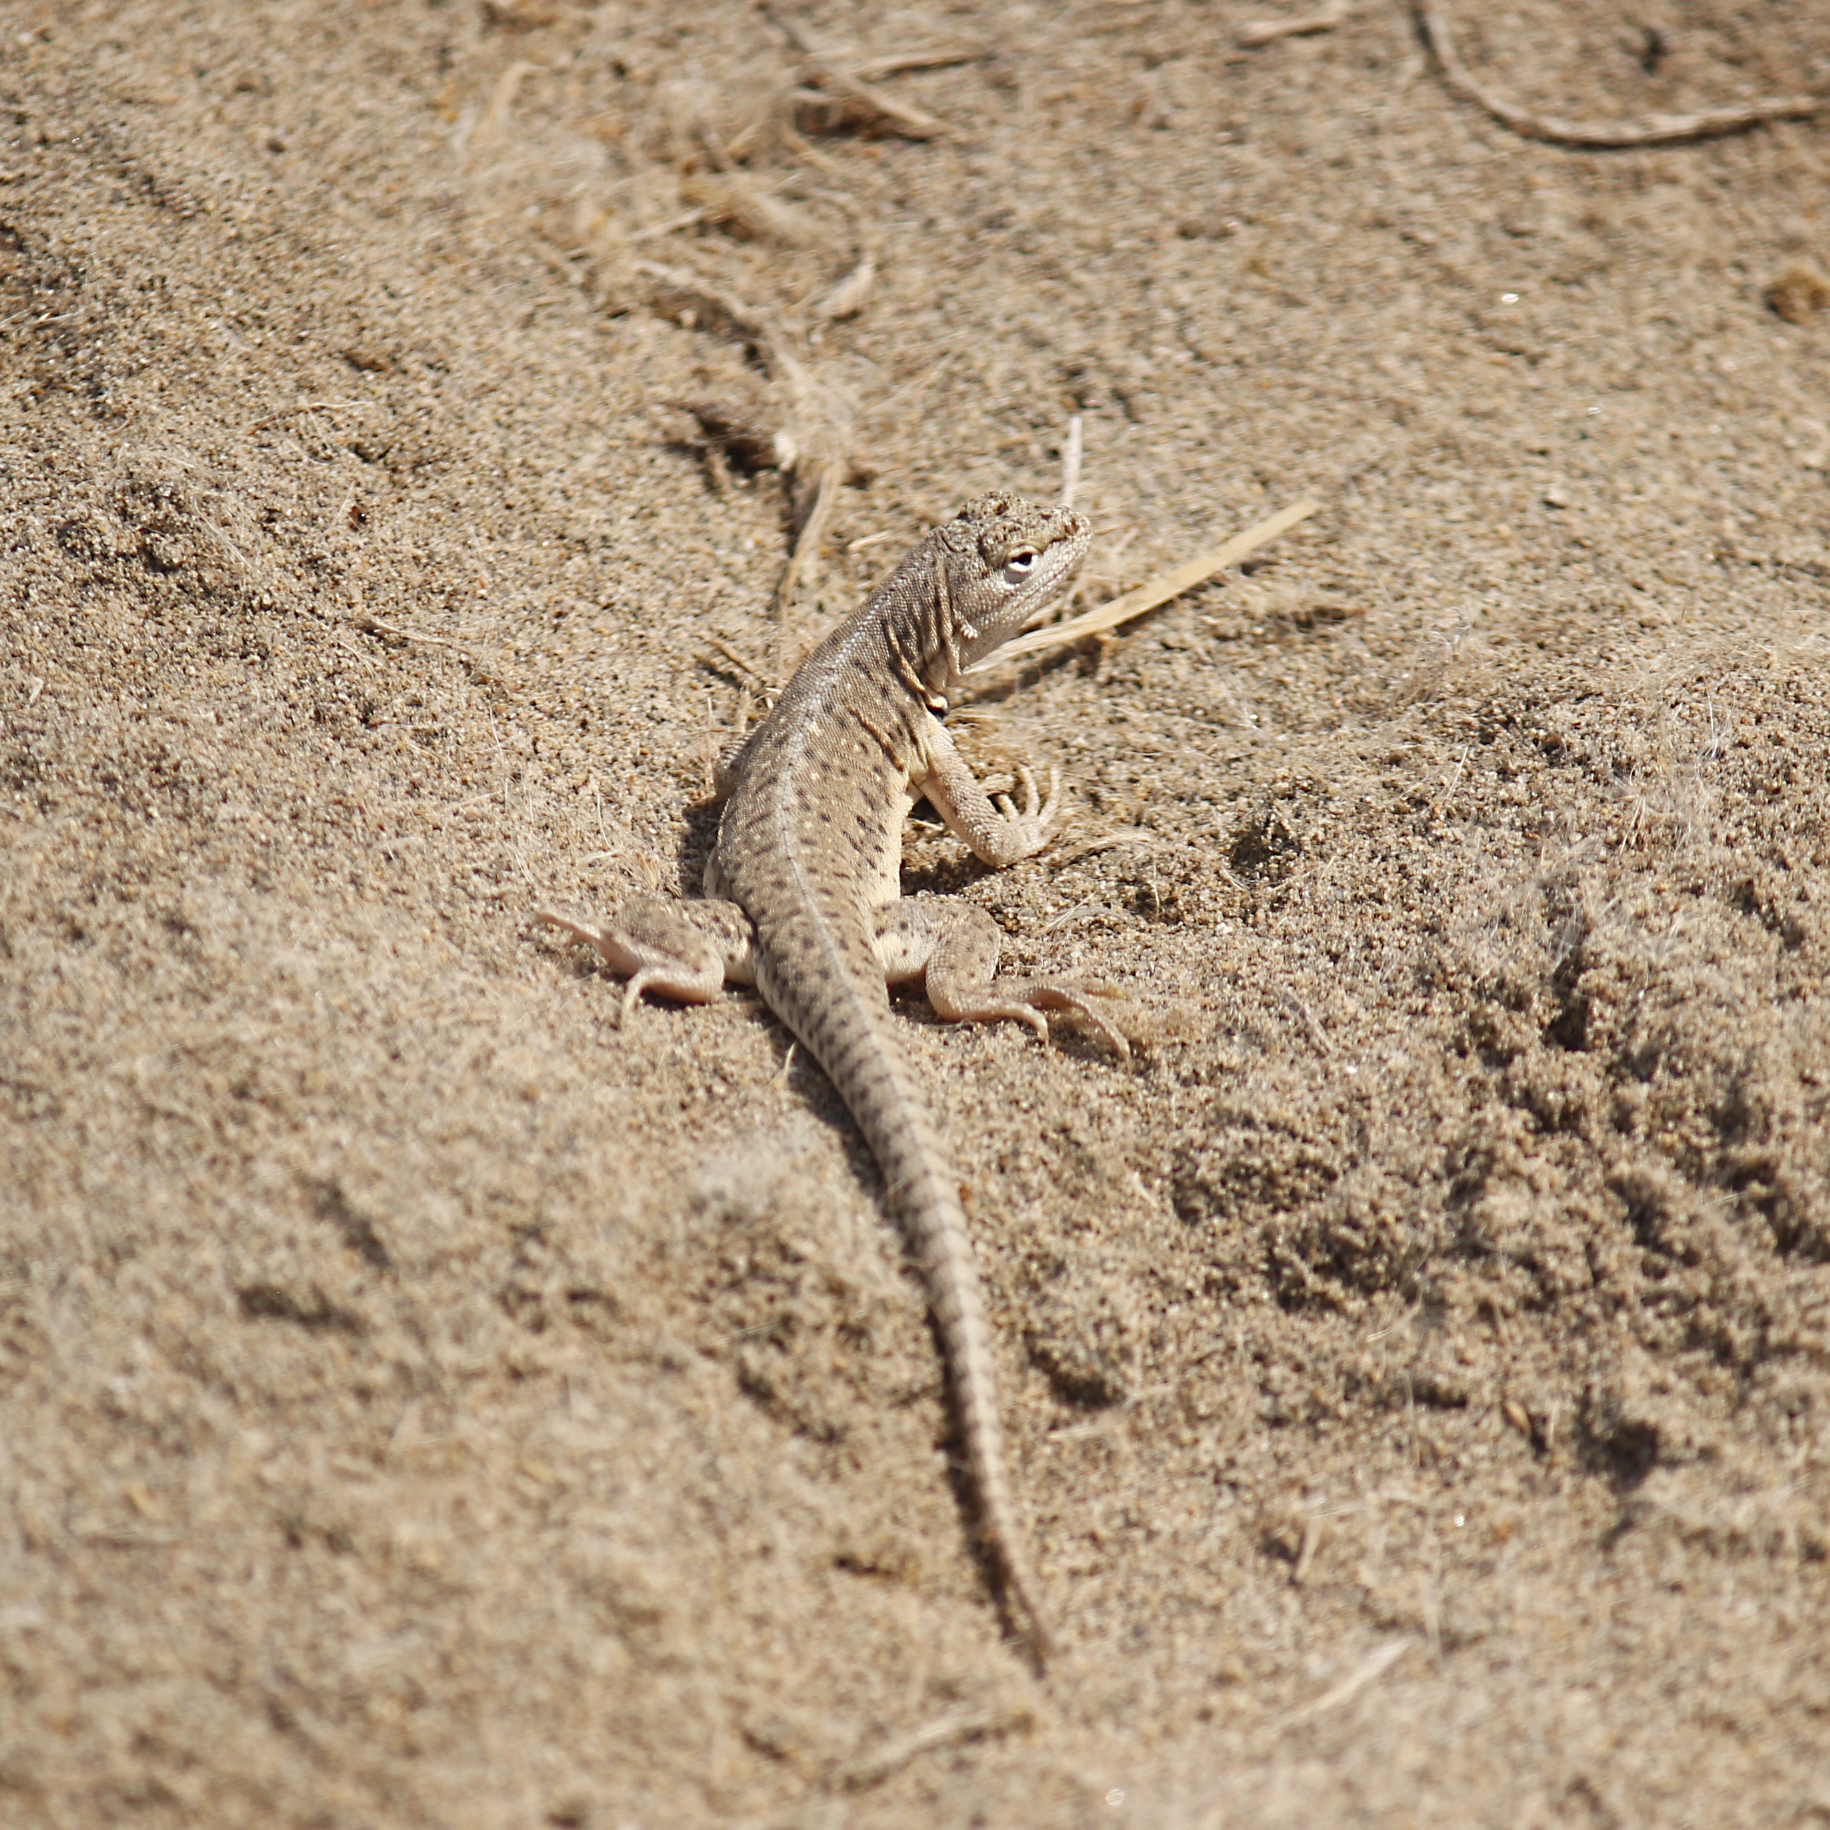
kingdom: Animalia
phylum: Chordata
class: Squamata
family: Tropiduridae
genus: Microlophus
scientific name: Microlophus thoracicus
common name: Tschudi's pacific iguana
